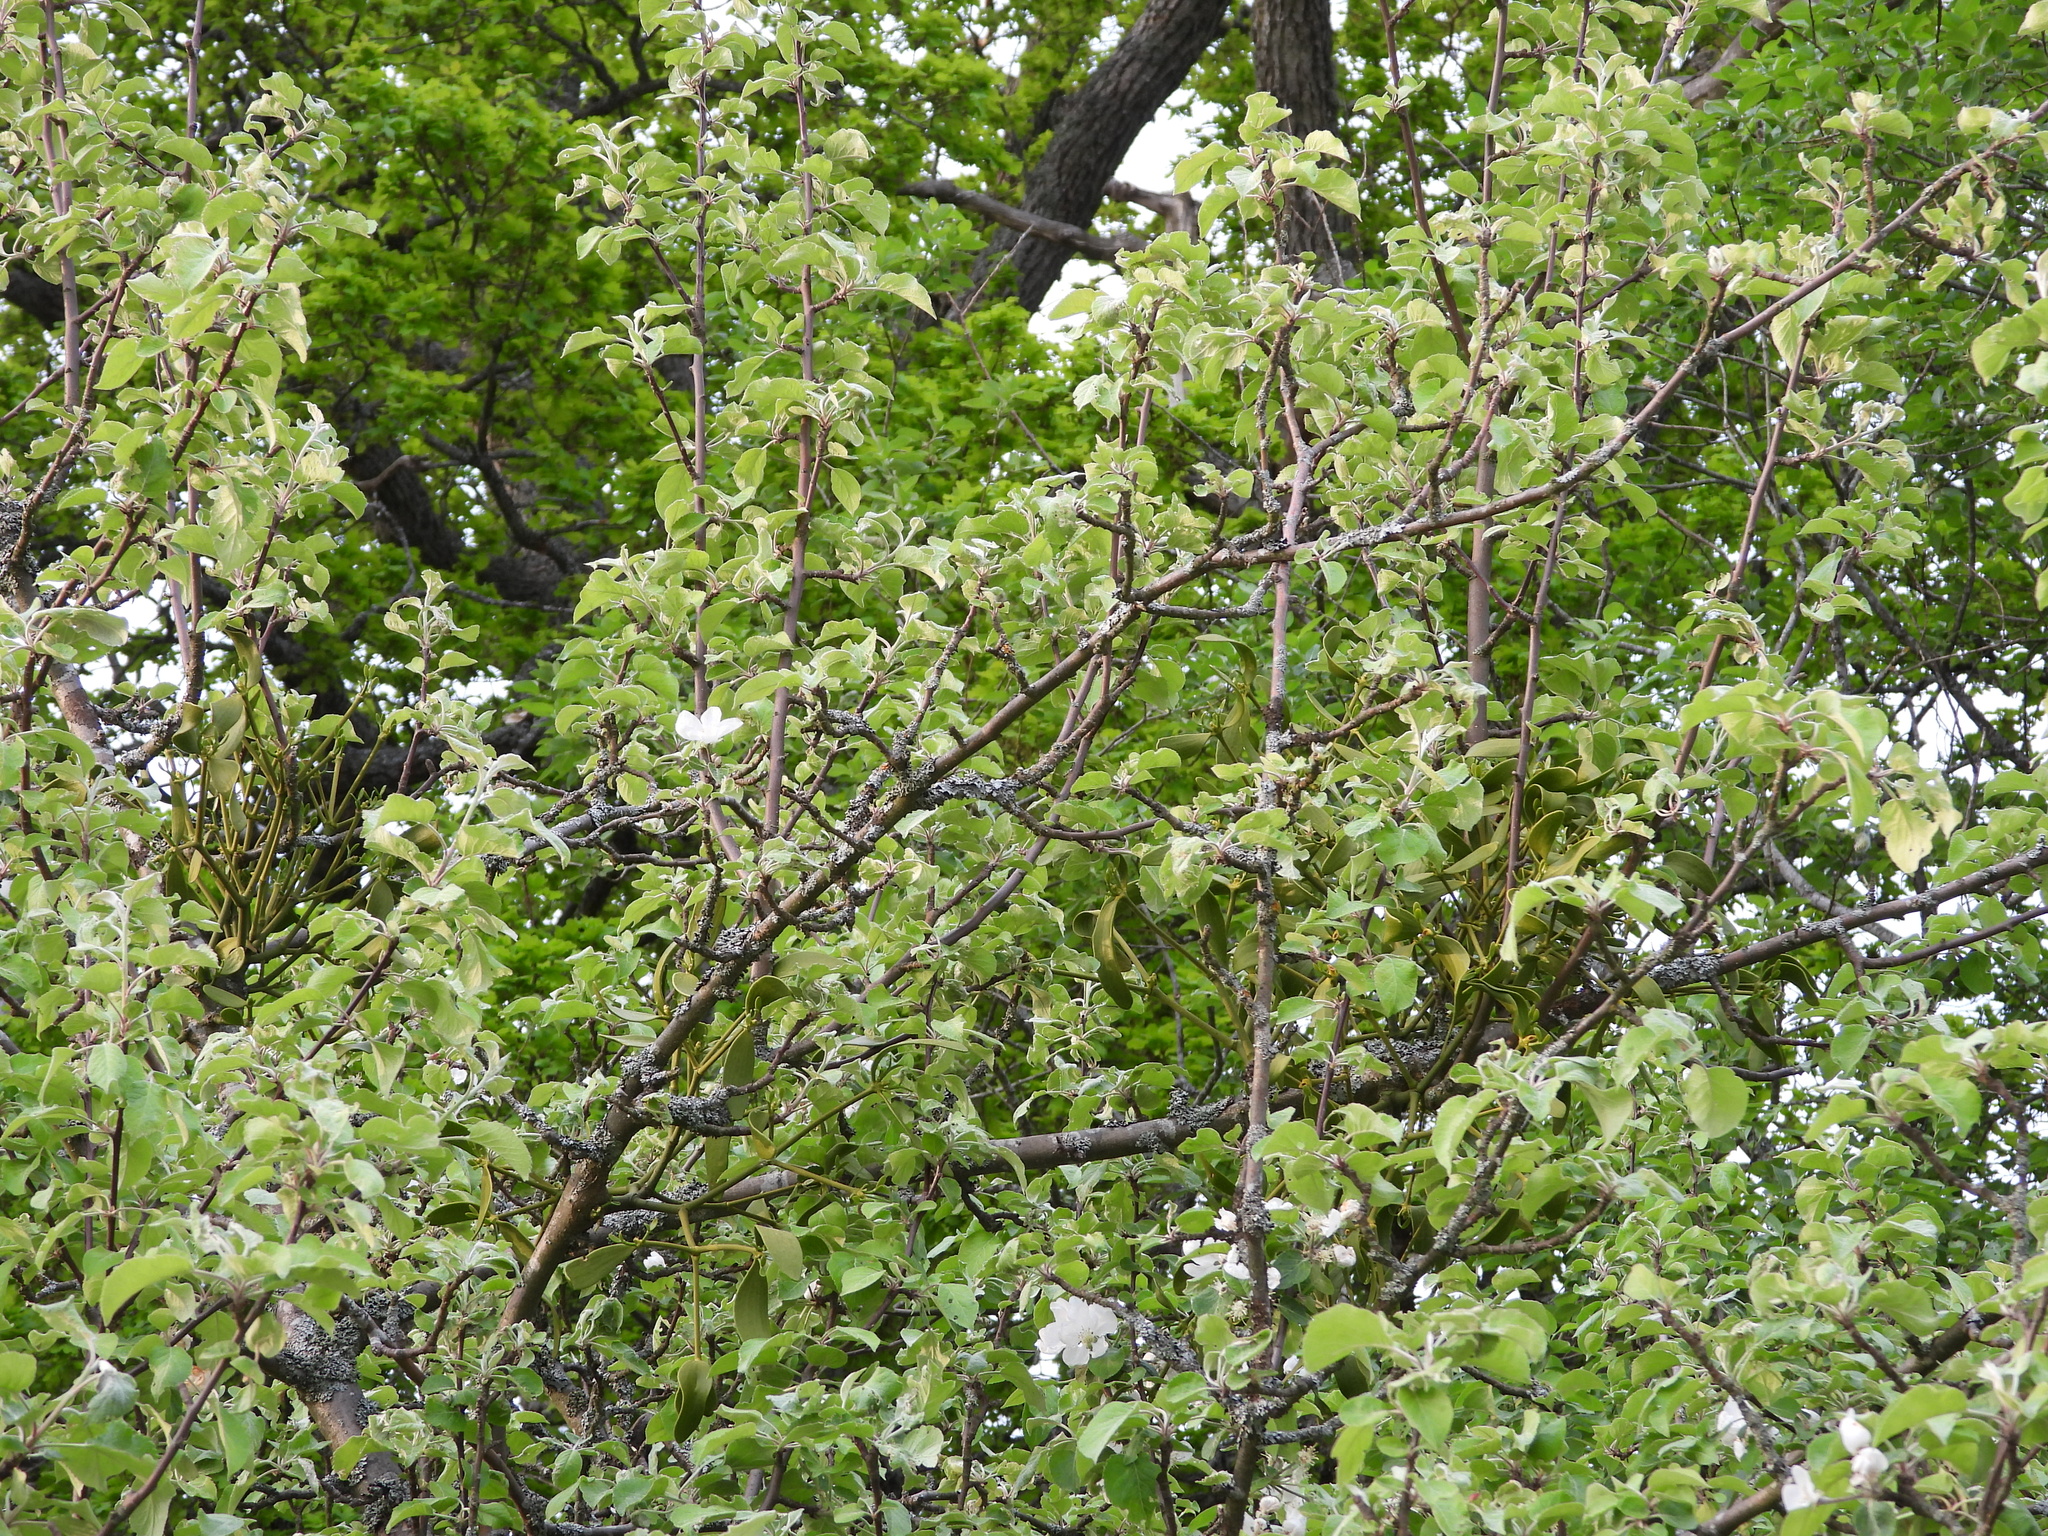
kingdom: Plantae
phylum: Tracheophyta
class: Magnoliopsida
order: Santalales
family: Viscaceae
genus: Viscum
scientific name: Viscum album
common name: Mistletoe
